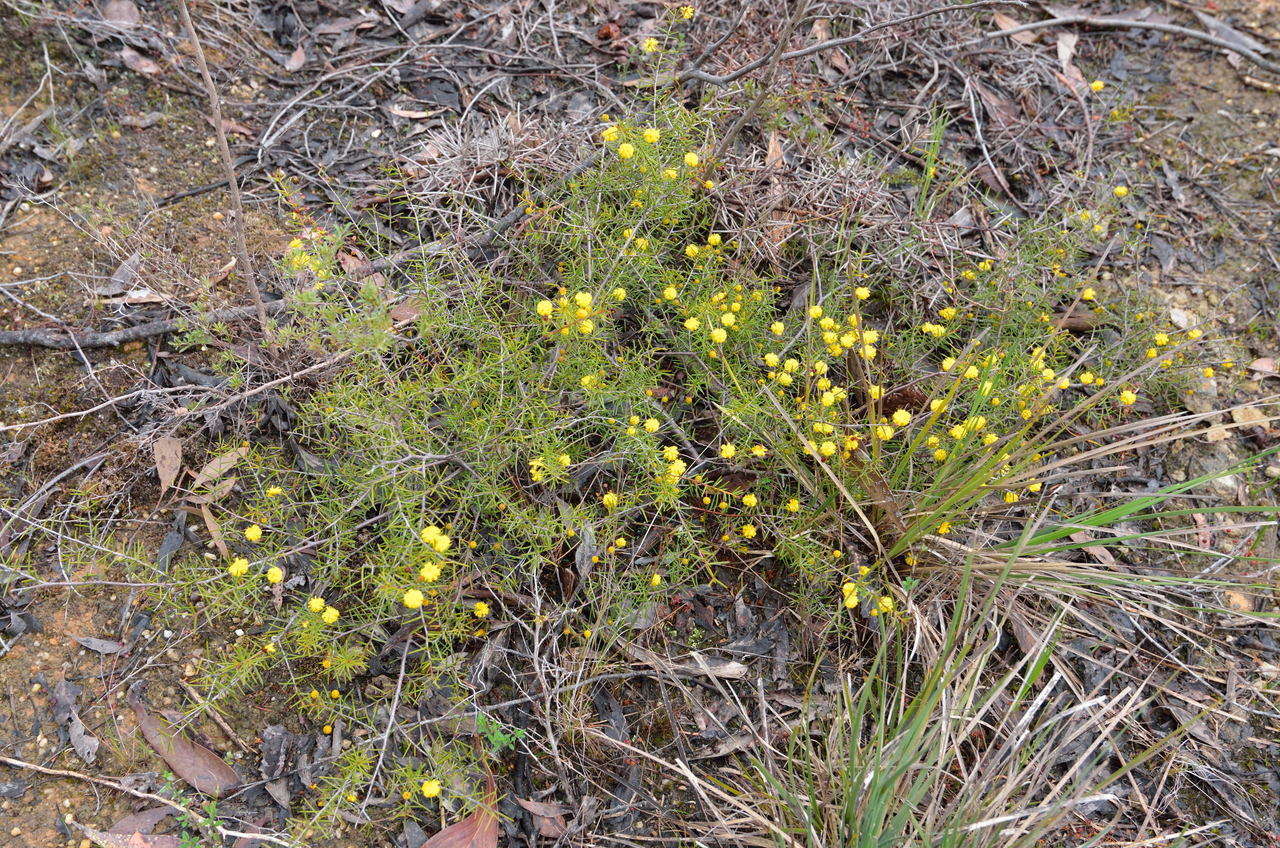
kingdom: Plantae
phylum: Tracheophyta
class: Magnoliopsida
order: Fabales
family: Fabaceae
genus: Acacia
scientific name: Acacia brownii
